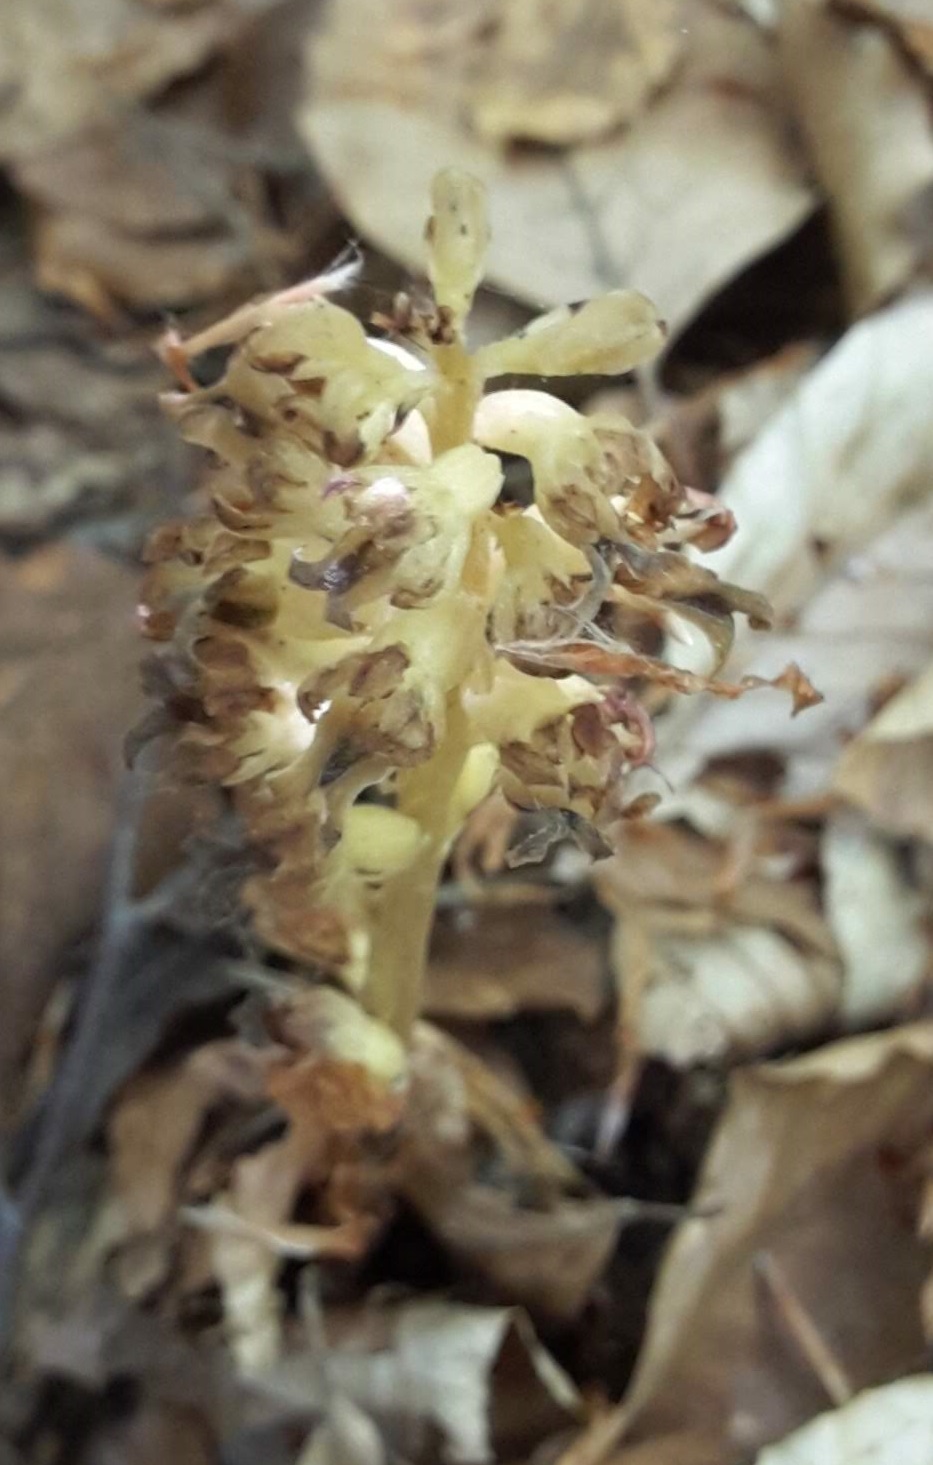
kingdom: Plantae
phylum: Tracheophyta
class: Liliopsida
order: Asparagales
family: Orchidaceae
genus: Neottia
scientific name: Neottia nidus-avis
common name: Bird's-nest orchid
